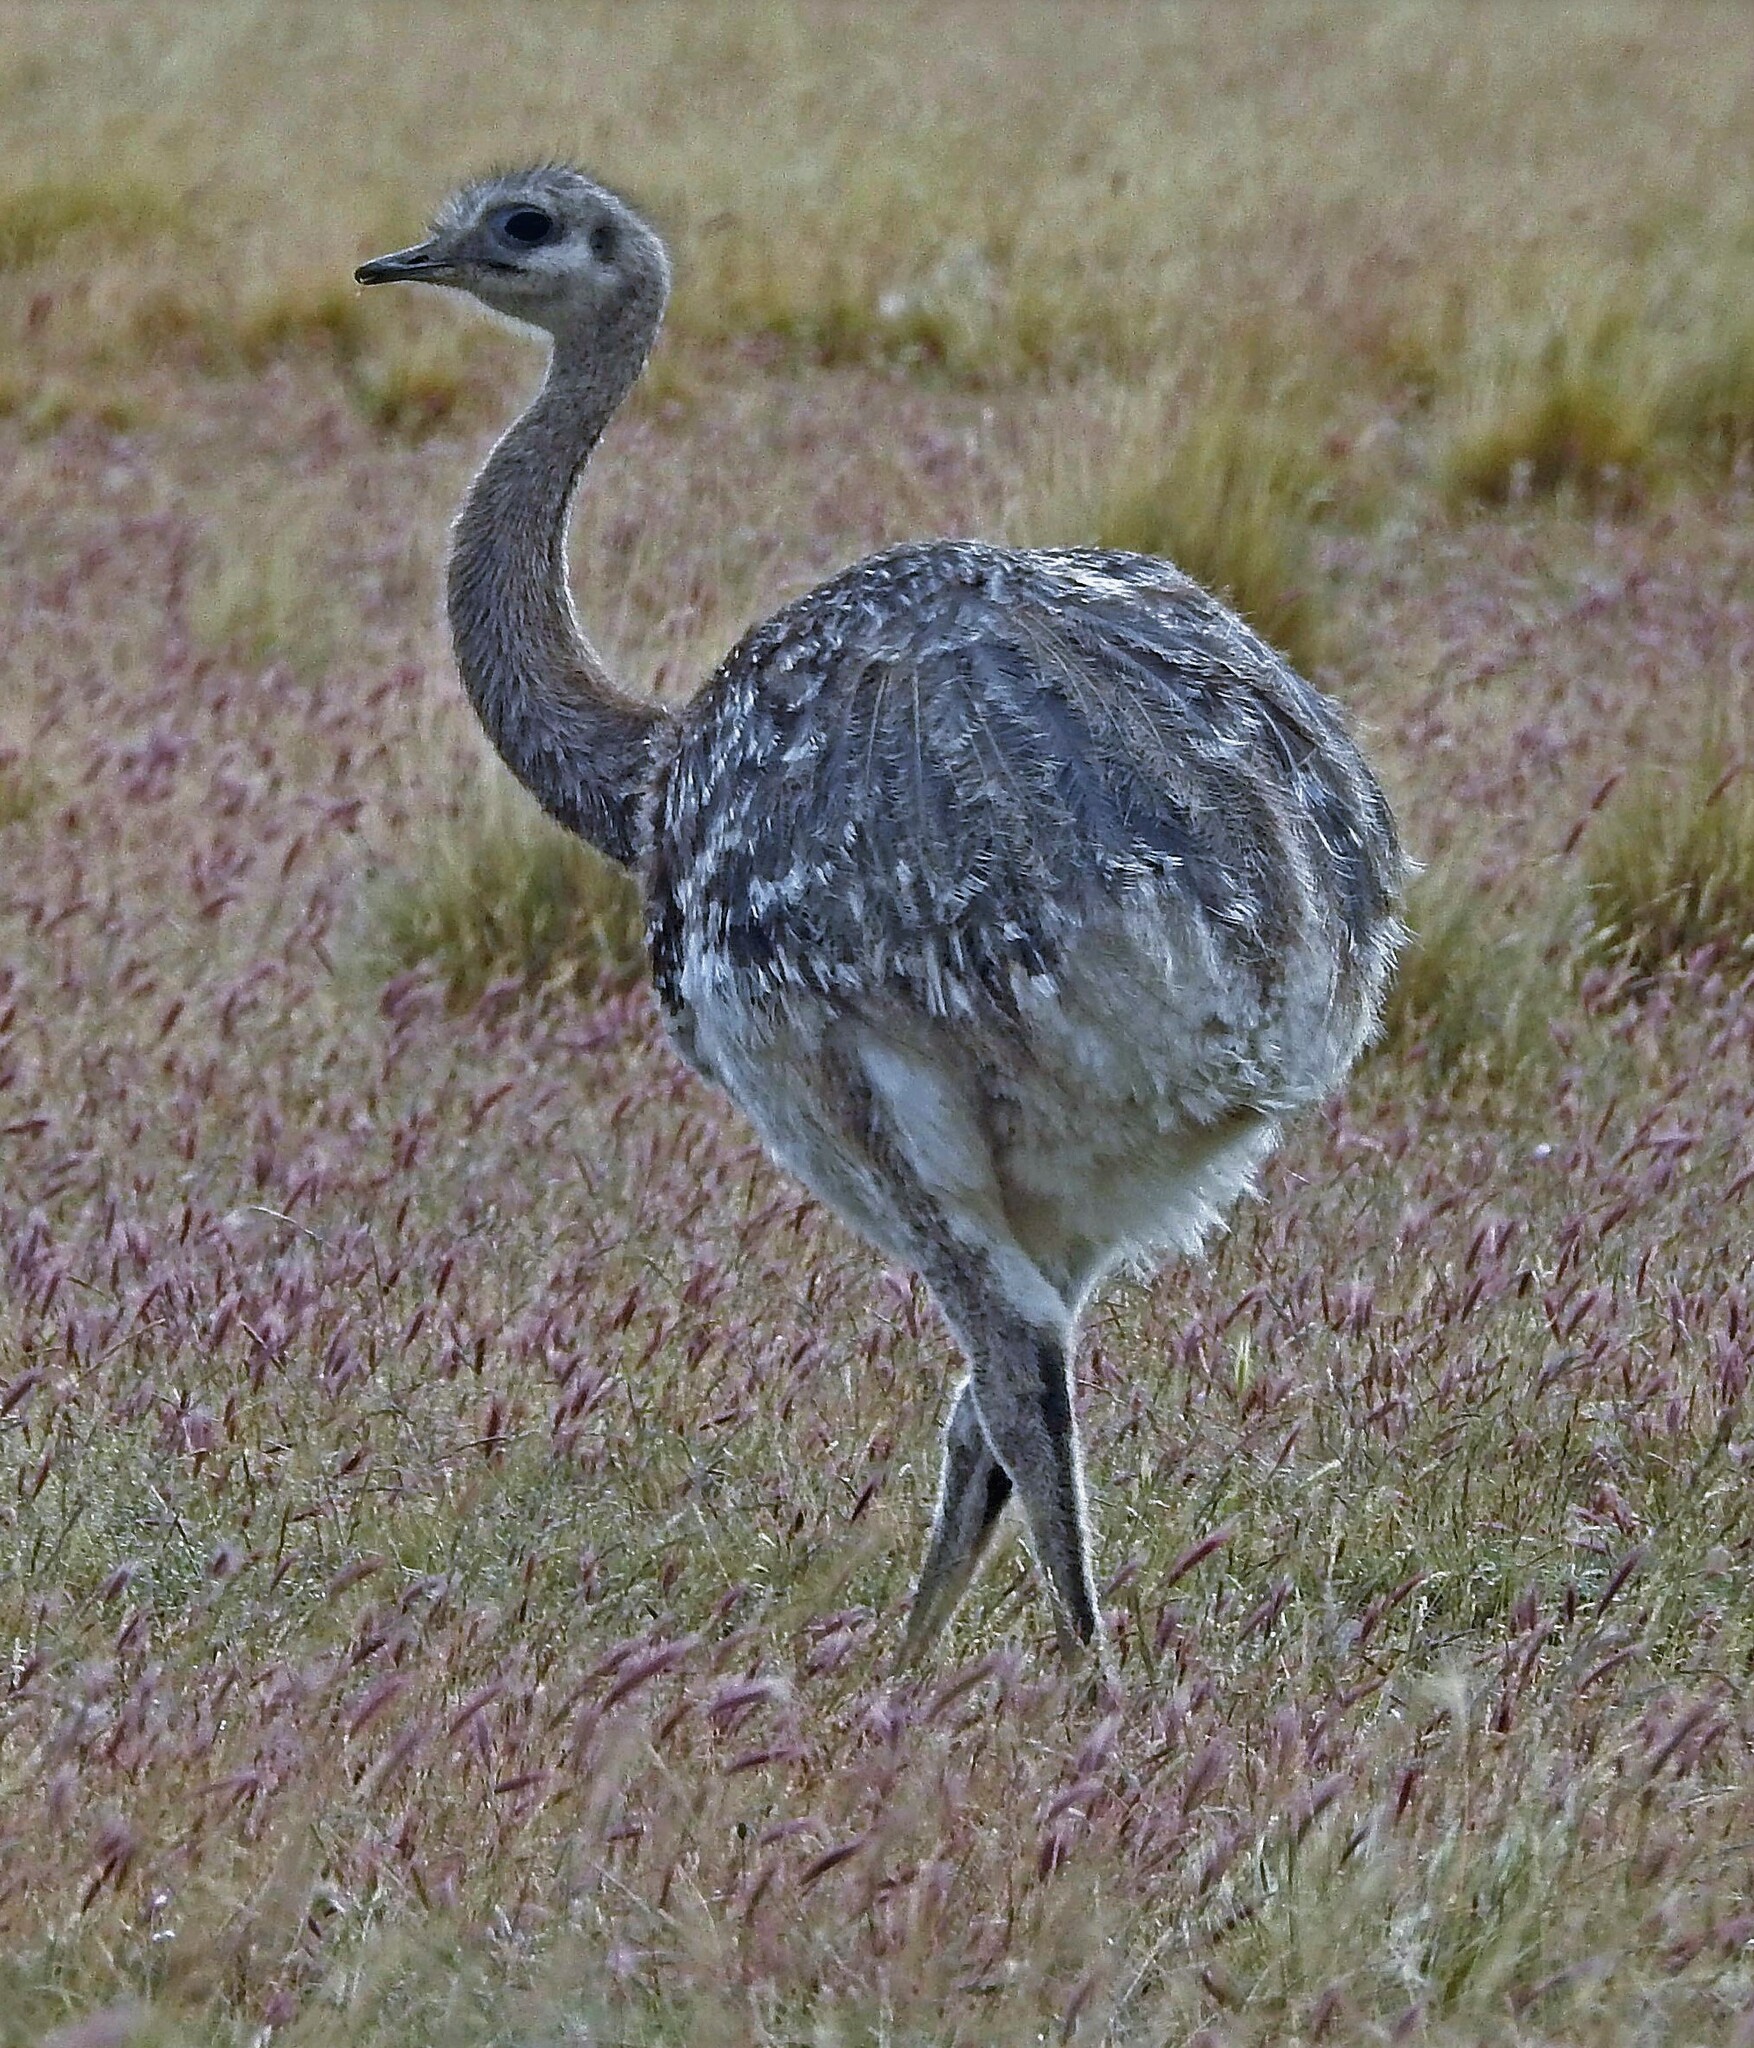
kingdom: Animalia
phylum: Chordata
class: Aves
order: Rheiformes
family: Rheidae
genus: Rhea
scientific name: Rhea pennata
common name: Lesser rhea
